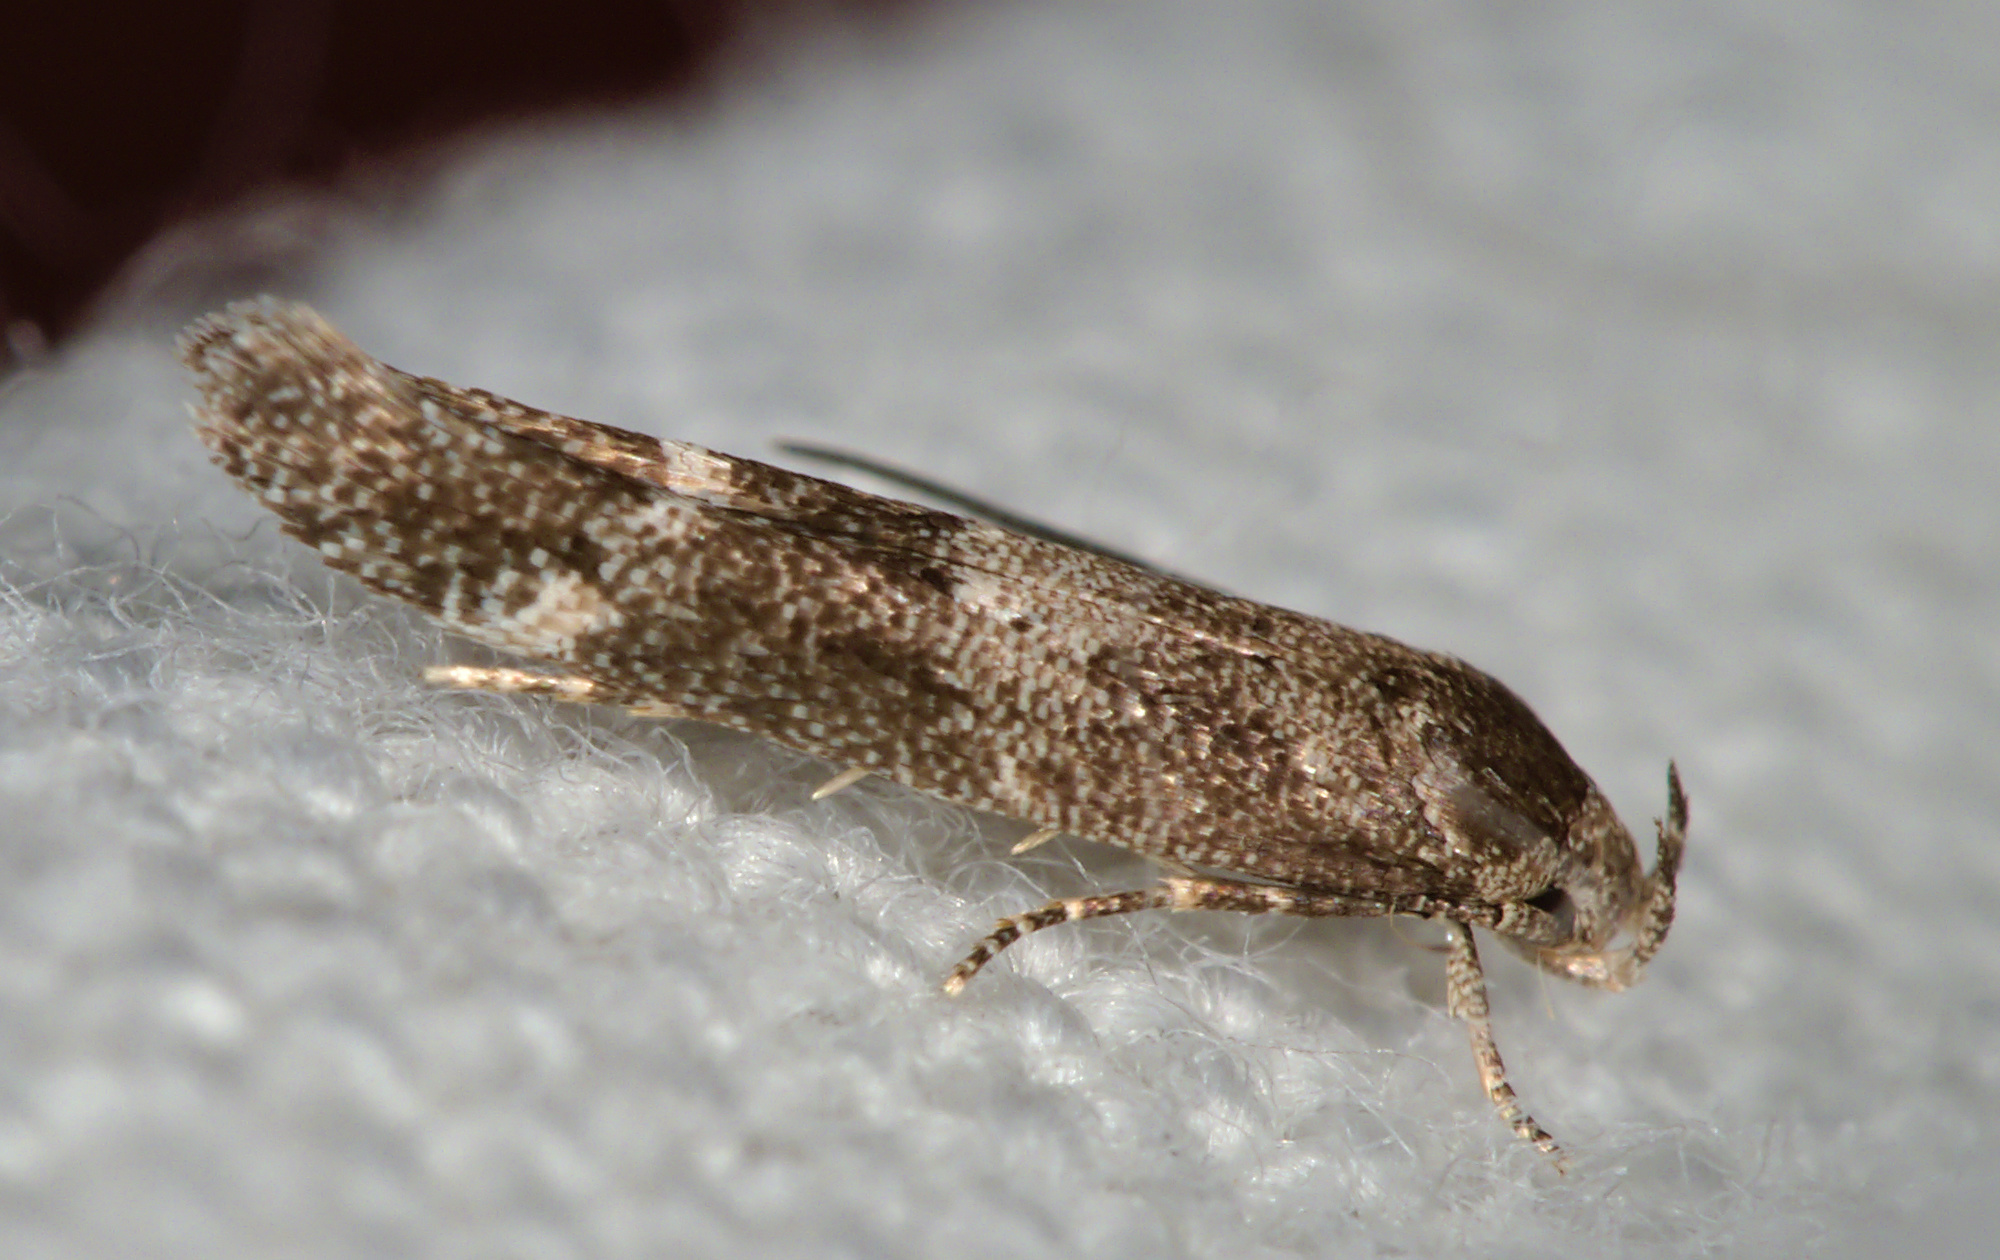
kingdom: Animalia
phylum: Arthropoda
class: Insecta
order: Lepidoptera
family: Momphidae
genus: Mompha
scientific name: Mompha subbistrigella
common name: Garden cosmet
